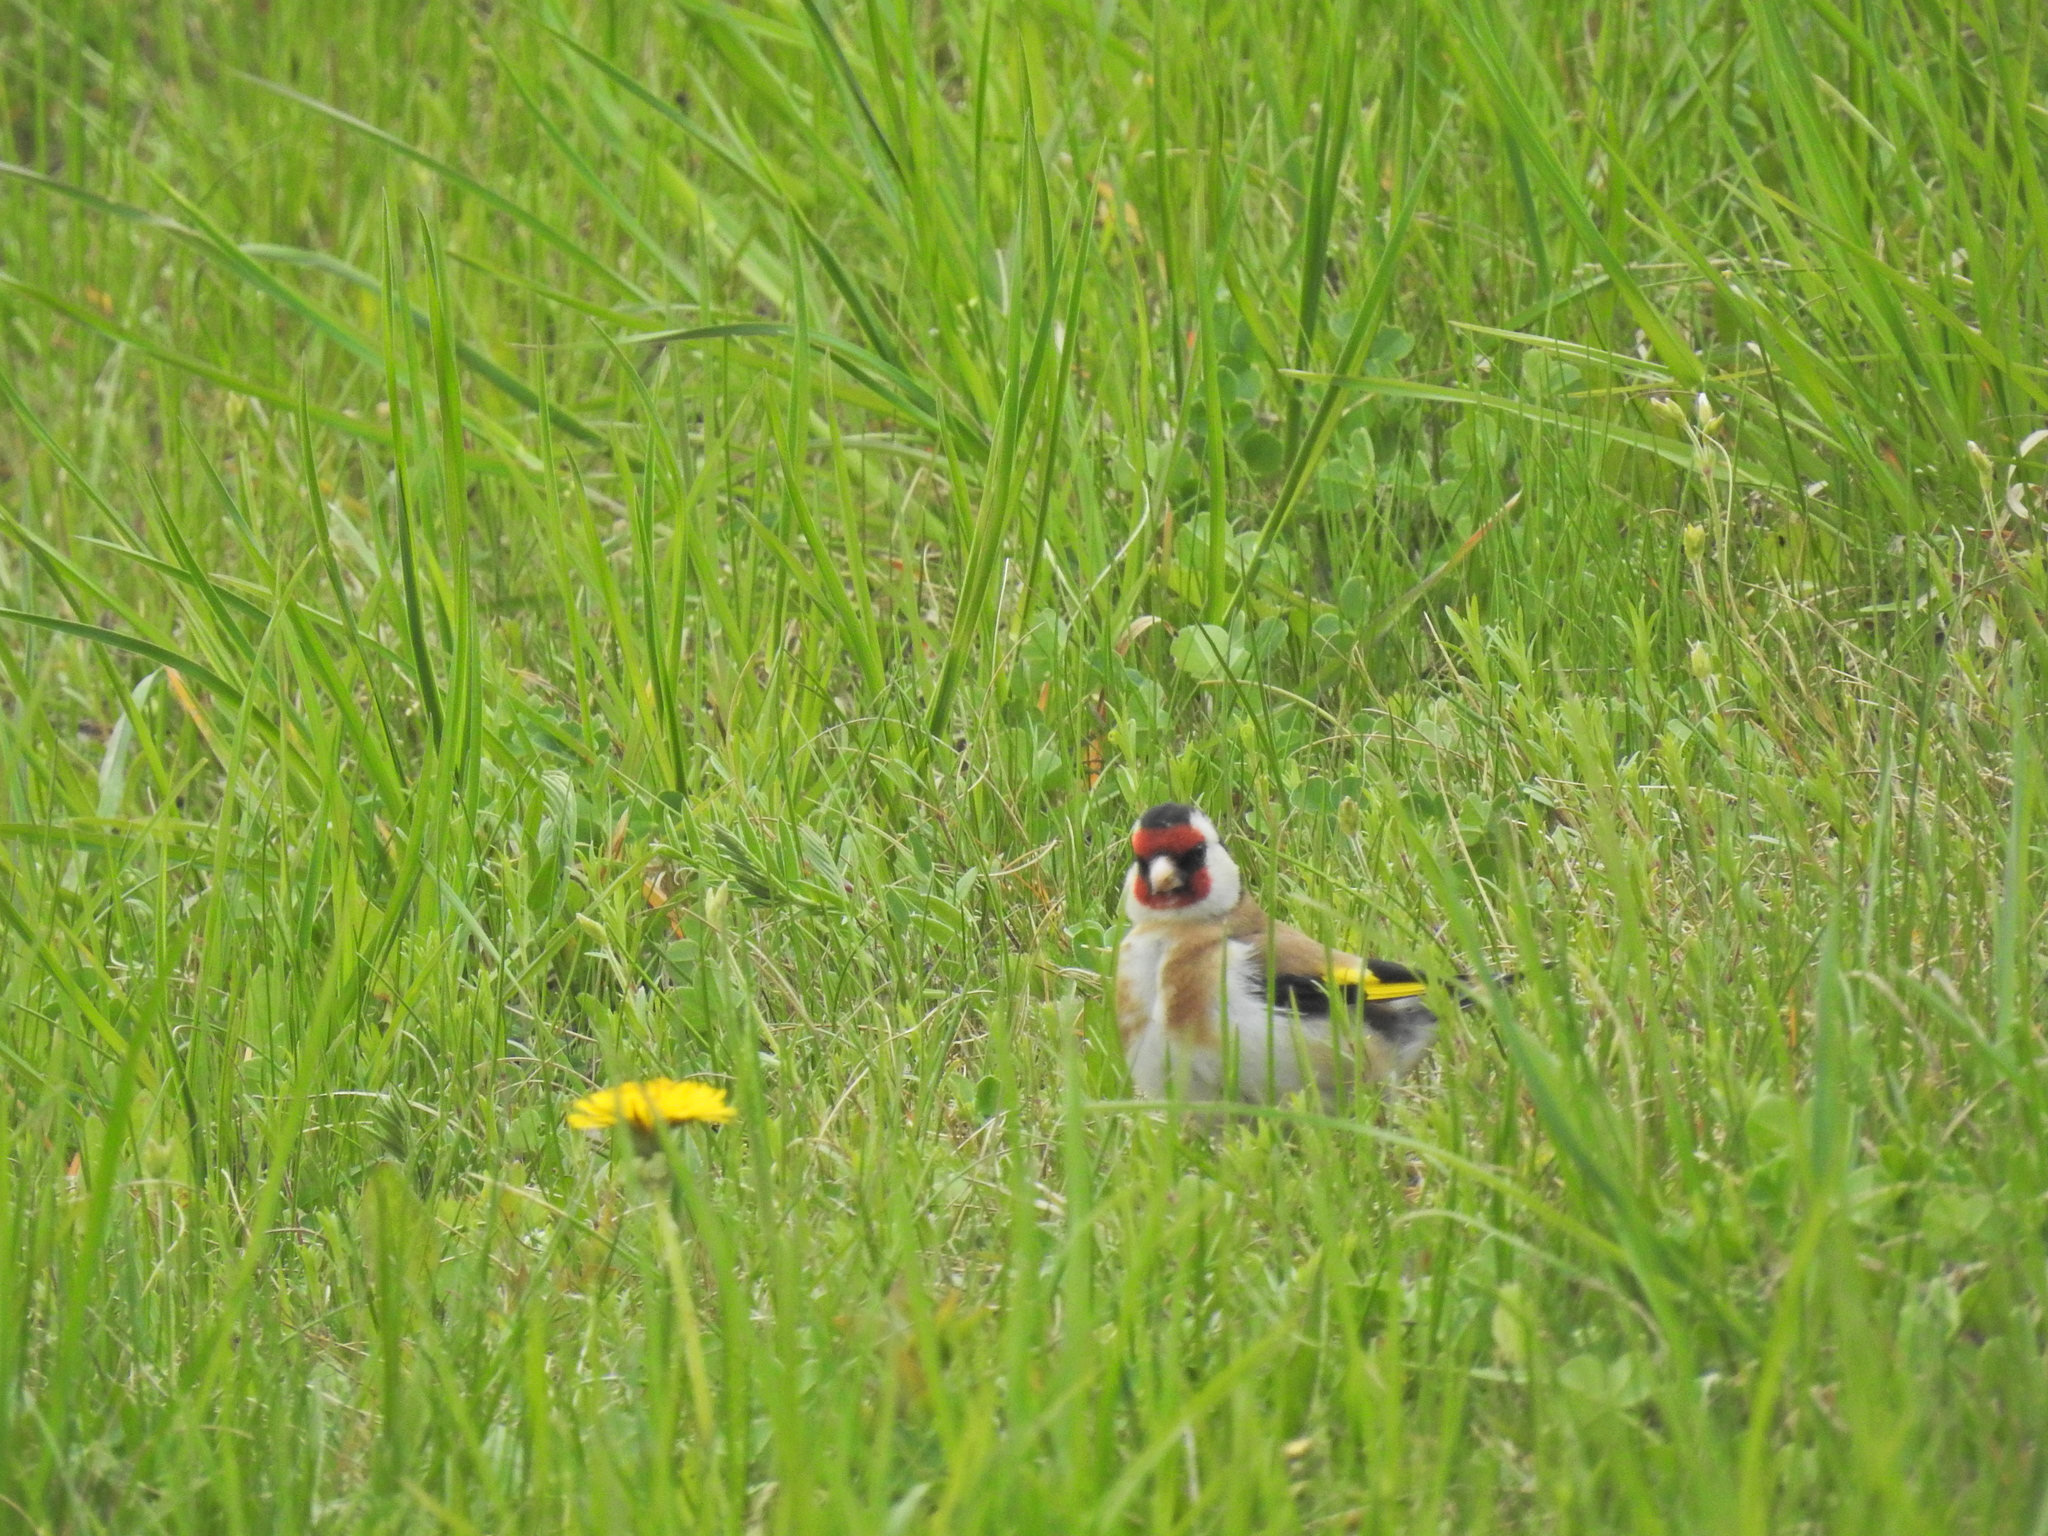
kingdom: Animalia
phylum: Chordata
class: Aves
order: Passeriformes
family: Fringillidae
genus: Carduelis
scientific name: Carduelis carduelis
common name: European goldfinch
